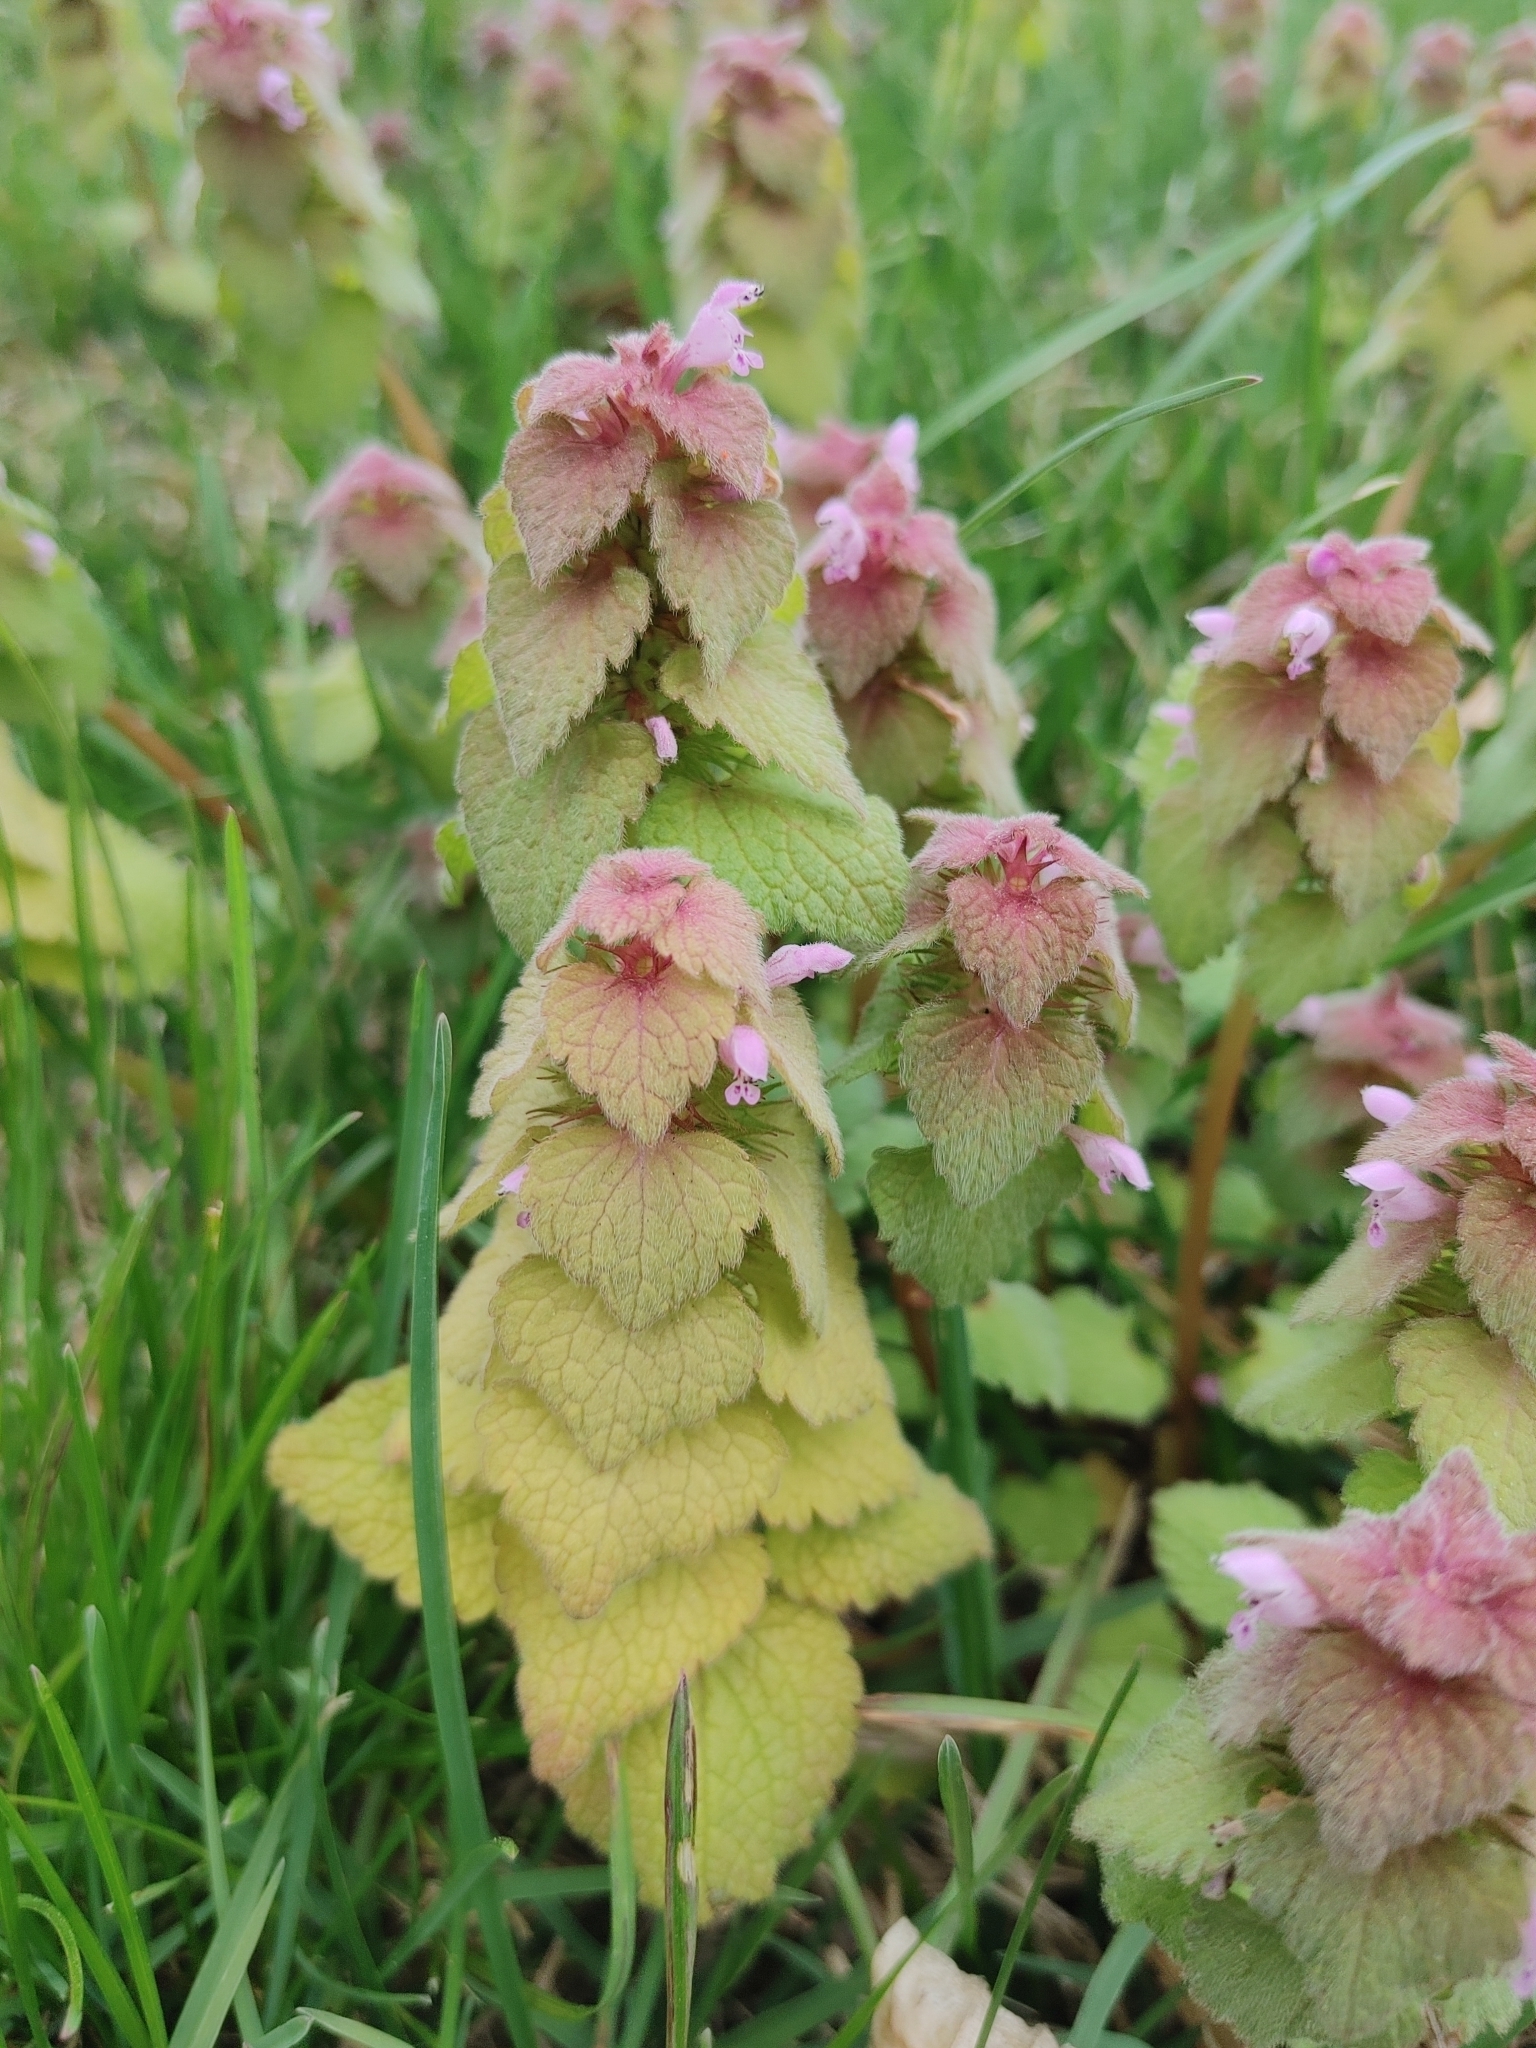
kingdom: Plantae
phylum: Tracheophyta
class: Magnoliopsida
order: Lamiales
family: Lamiaceae
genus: Lamium
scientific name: Lamium purpureum
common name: Red dead-nettle
